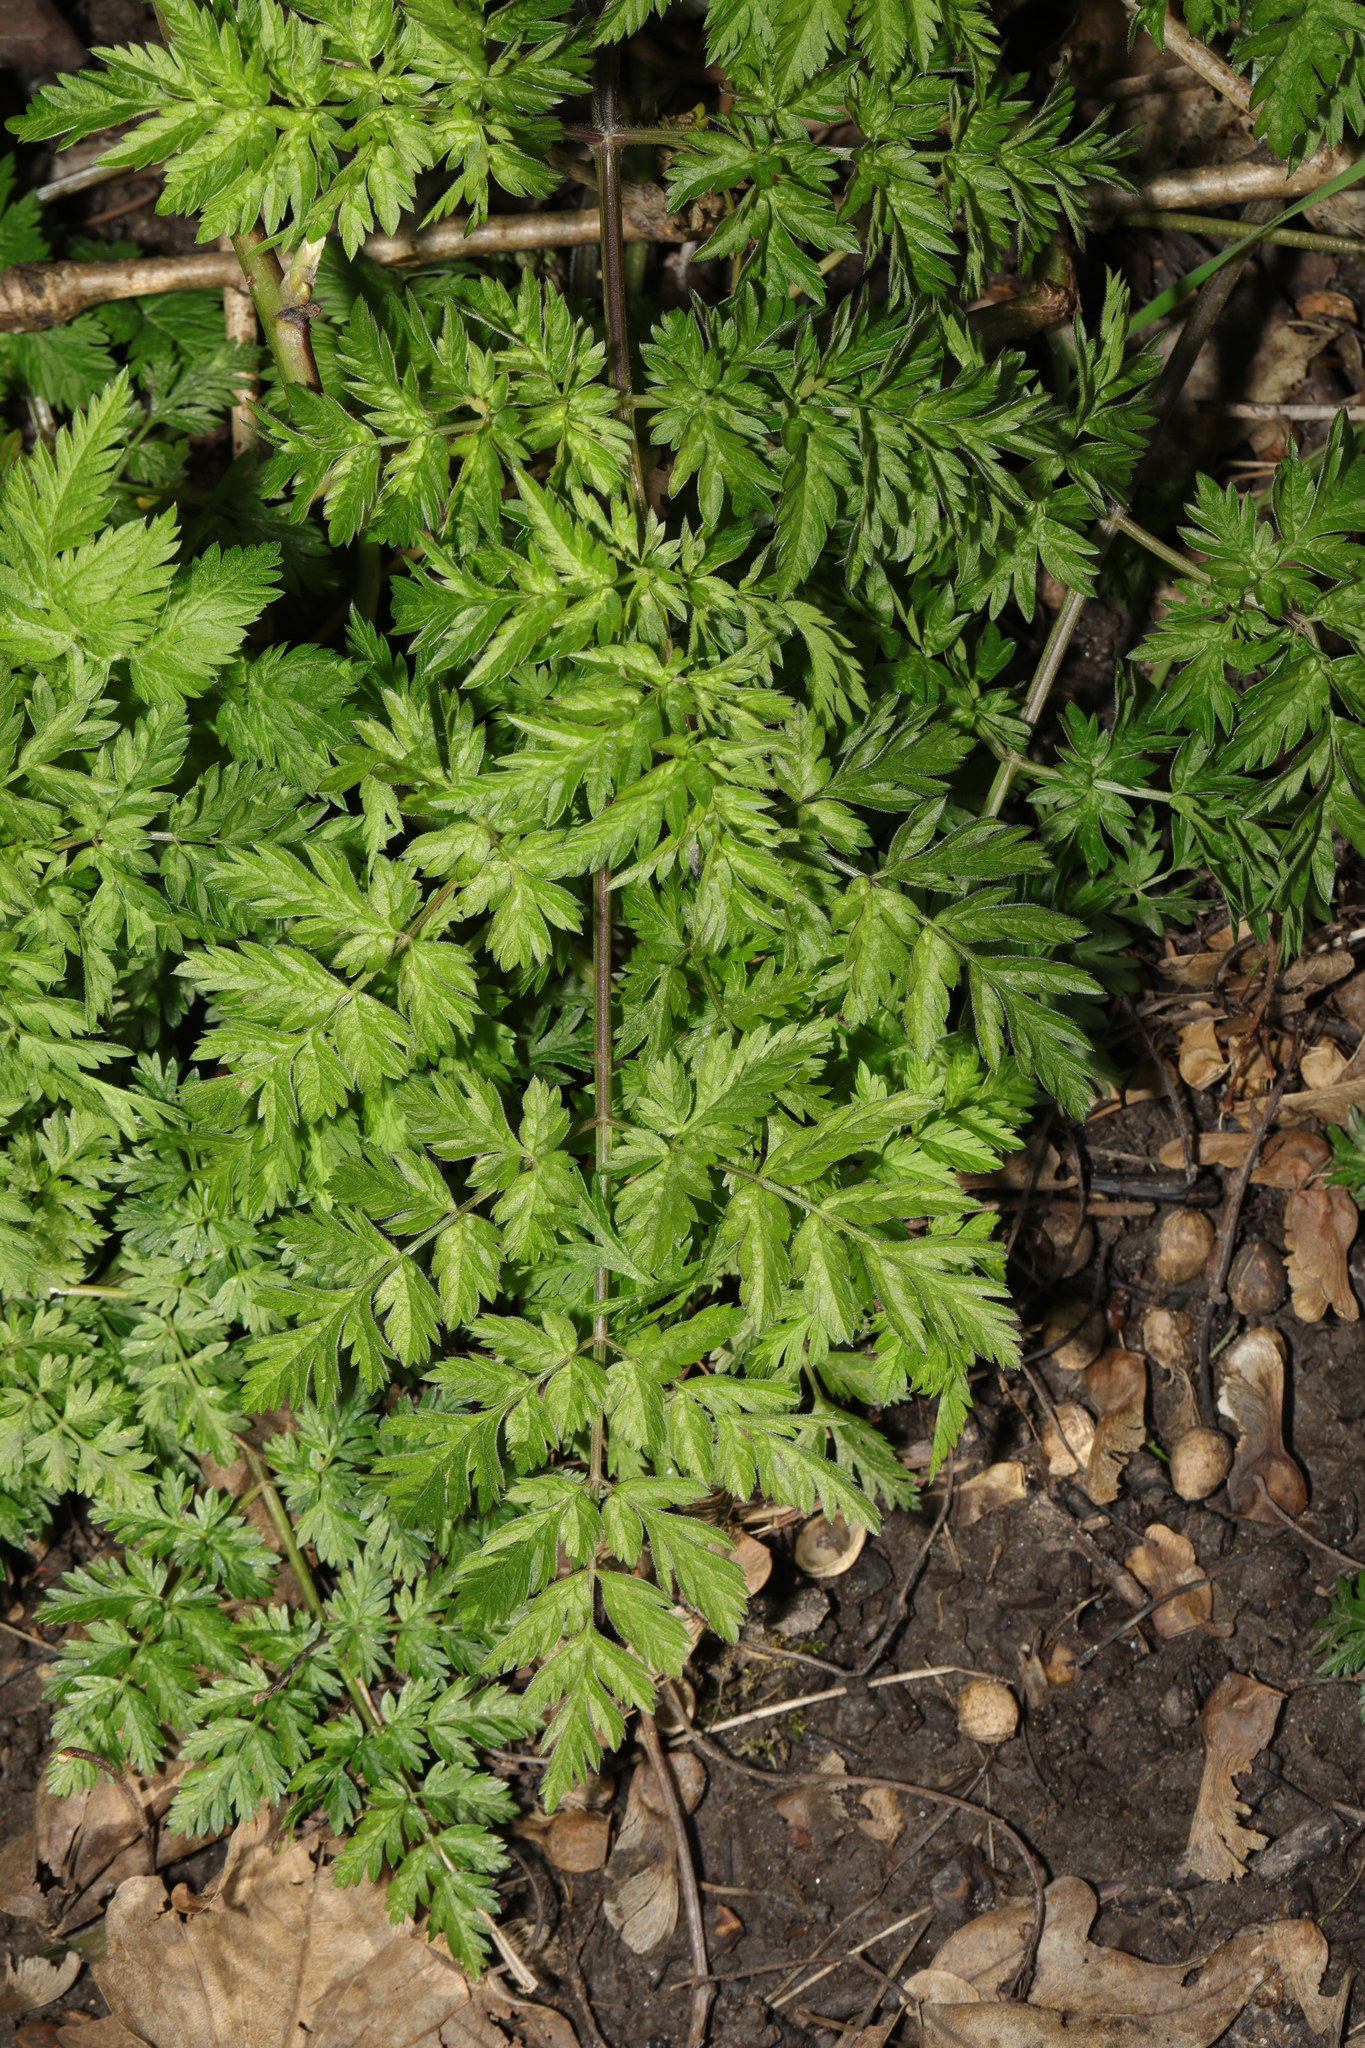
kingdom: Plantae
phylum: Tracheophyta
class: Magnoliopsida
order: Apiales
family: Apiaceae
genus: Anthriscus
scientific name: Anthriscus sylvestris
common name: Cow parsley
